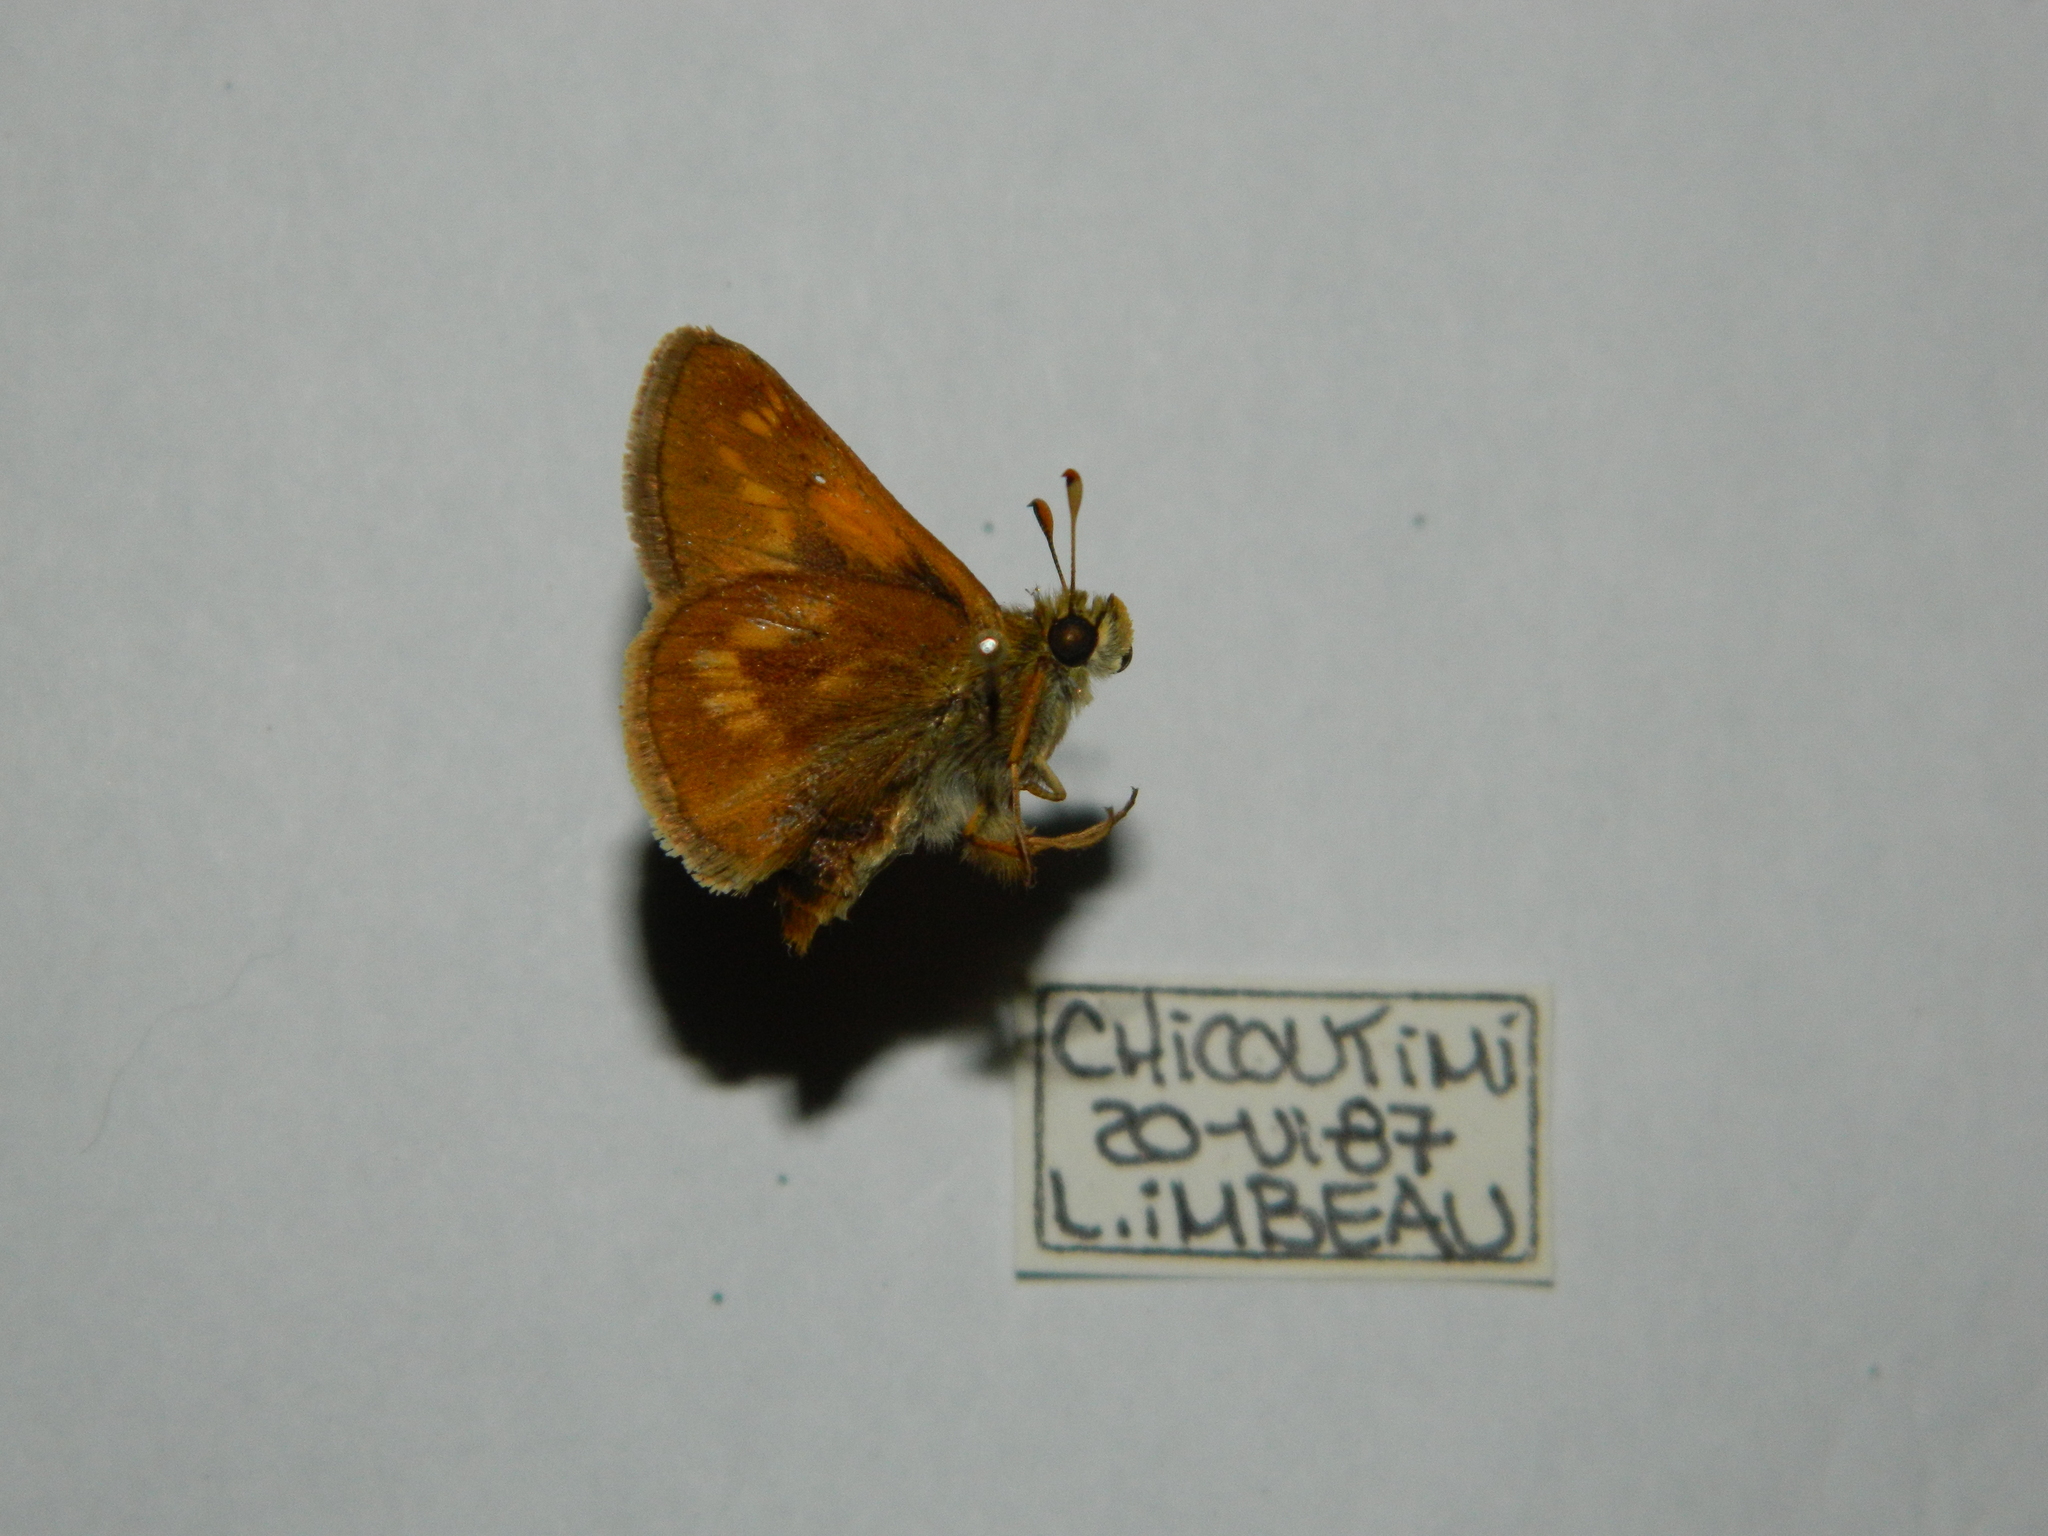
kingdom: Animalia
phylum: Arthropoda
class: Insecta
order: Lepidoptera
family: Hesperiidae
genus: Polites
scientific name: Polites mystic
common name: Long dash
